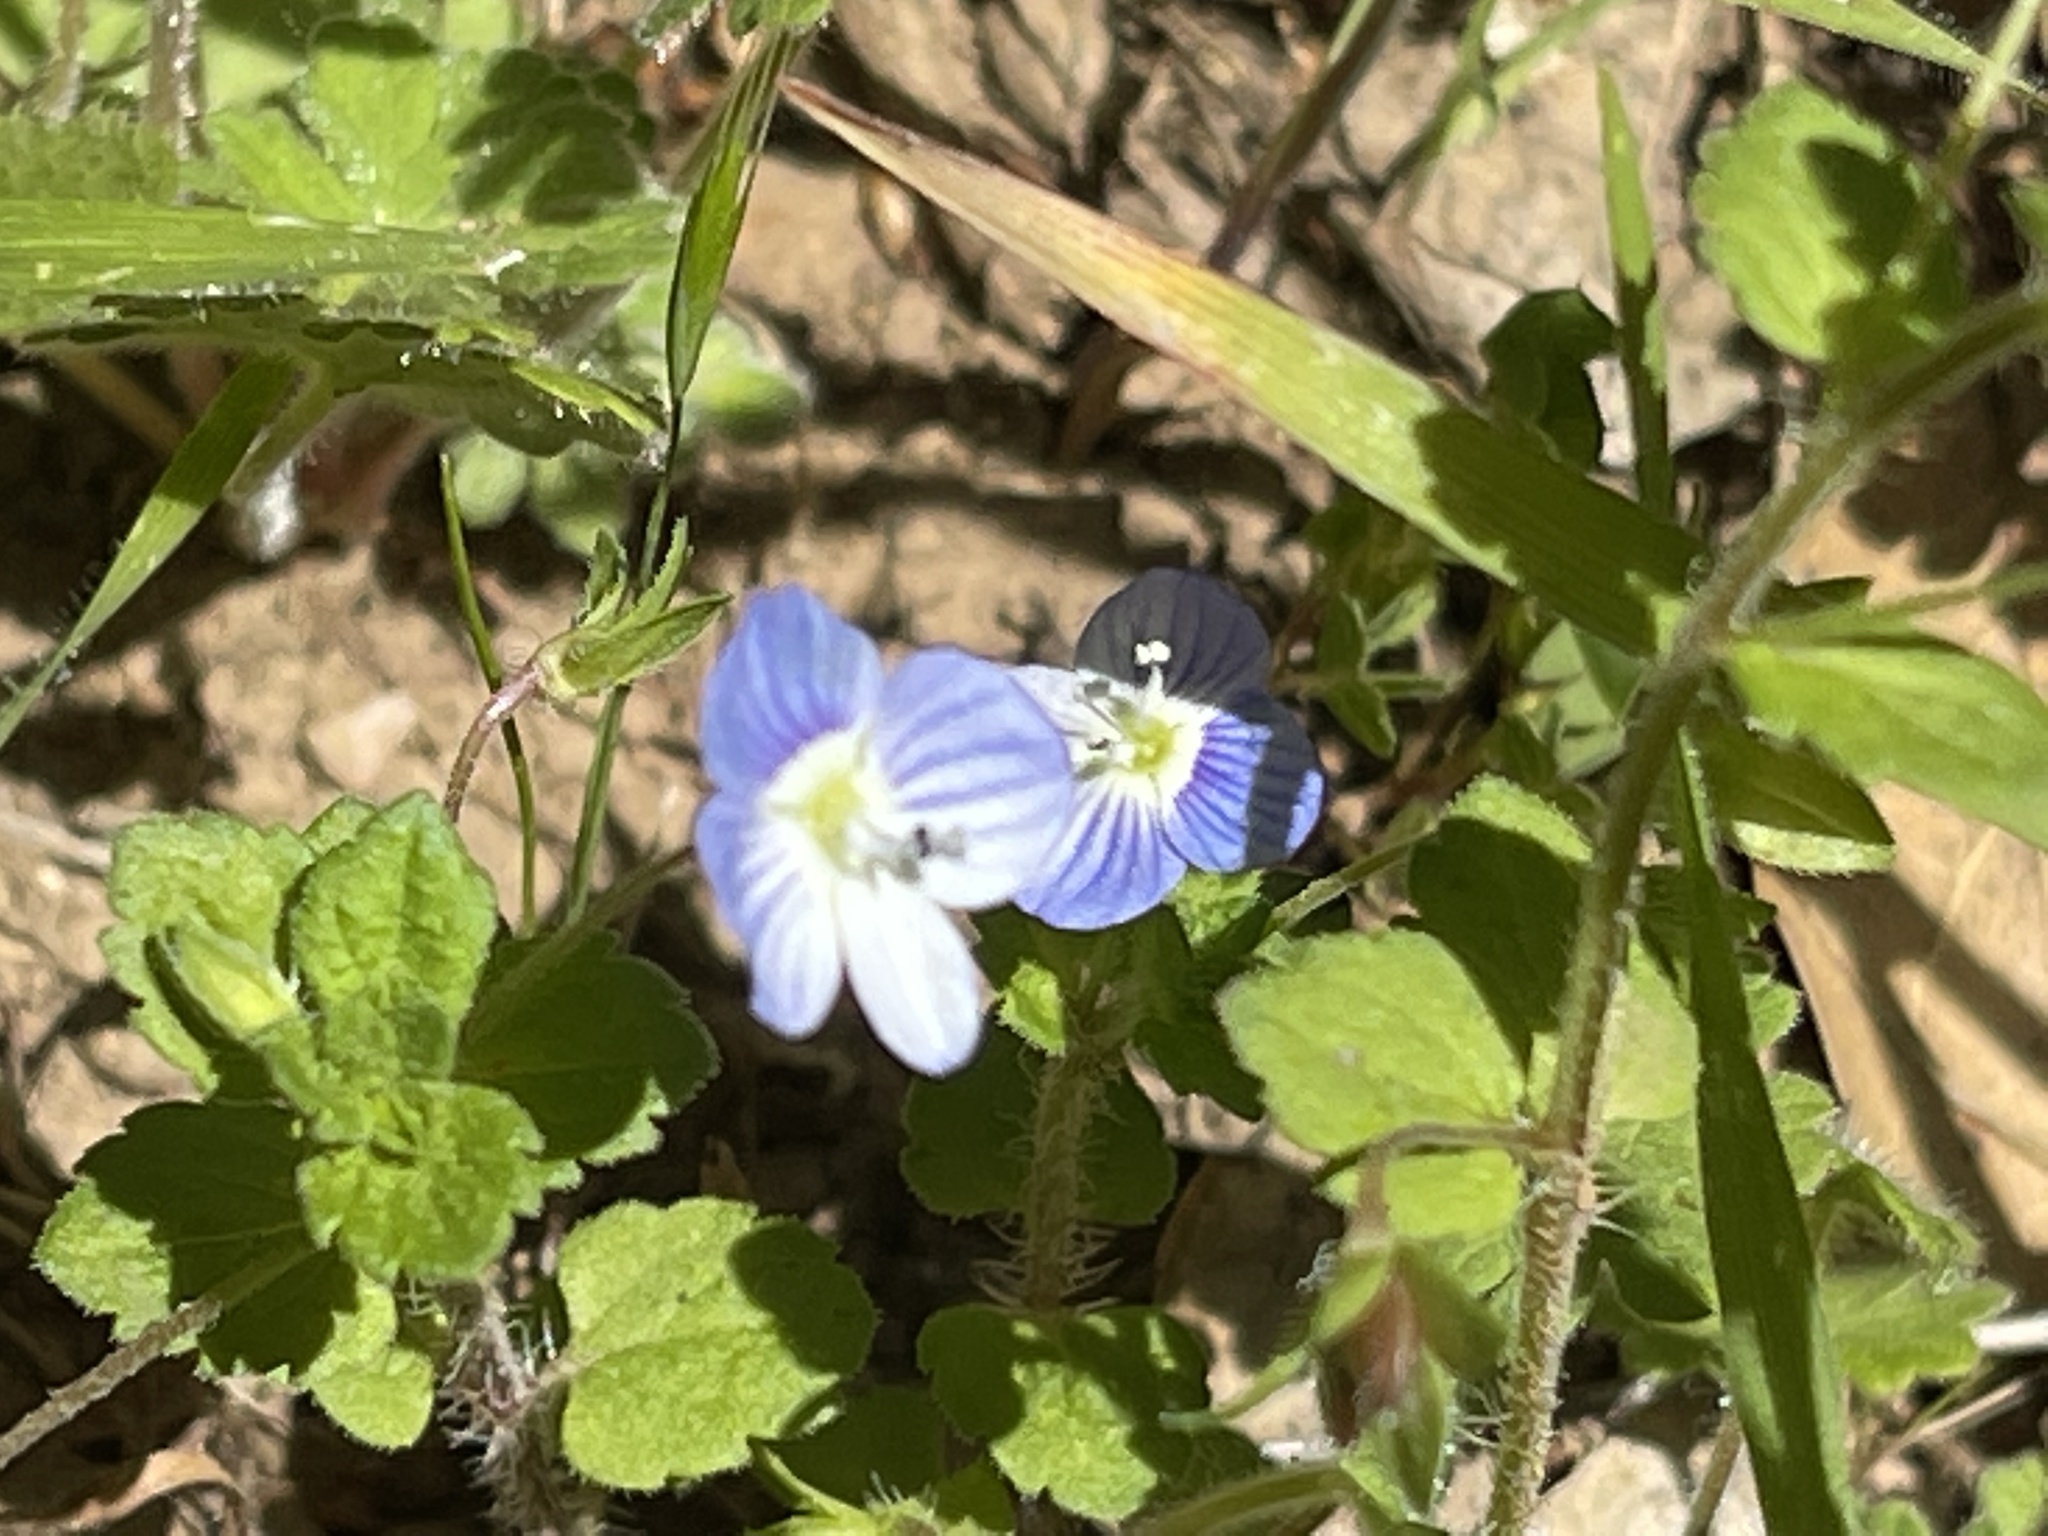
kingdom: Plantae
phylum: Tracheophyta
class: Magnoliopsida
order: Lamiales
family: Plantaginaceae
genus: Veronica
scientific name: Veronica persica
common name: Common field-speedwell
